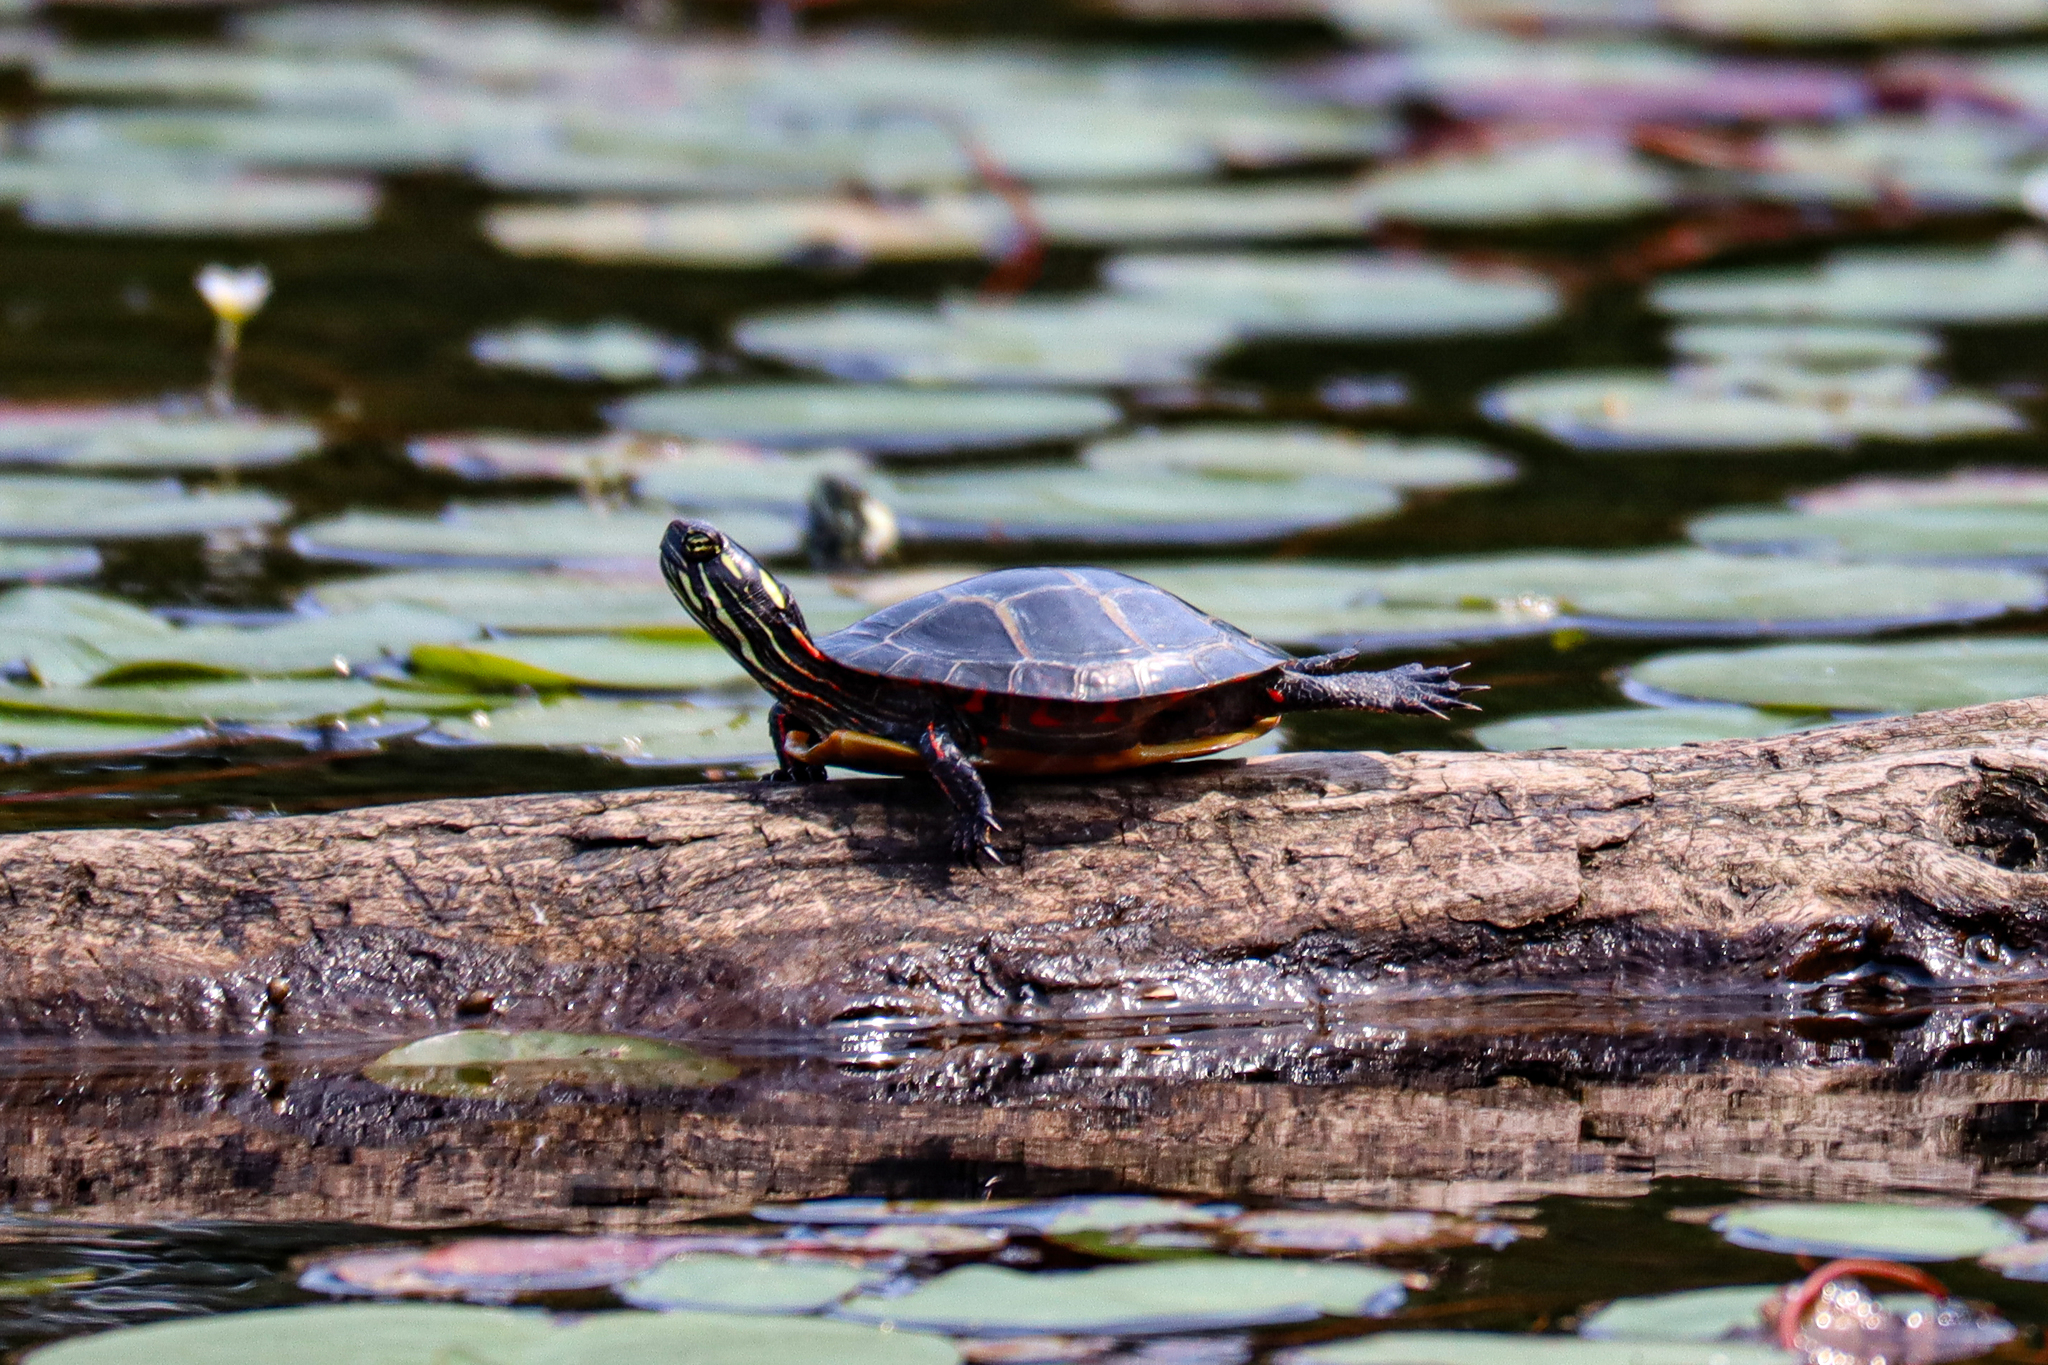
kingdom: Animalia
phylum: Chordata
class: Testudines
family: Emydidae
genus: Chrysemys
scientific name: Chrysemys picta
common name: Painted turtle
